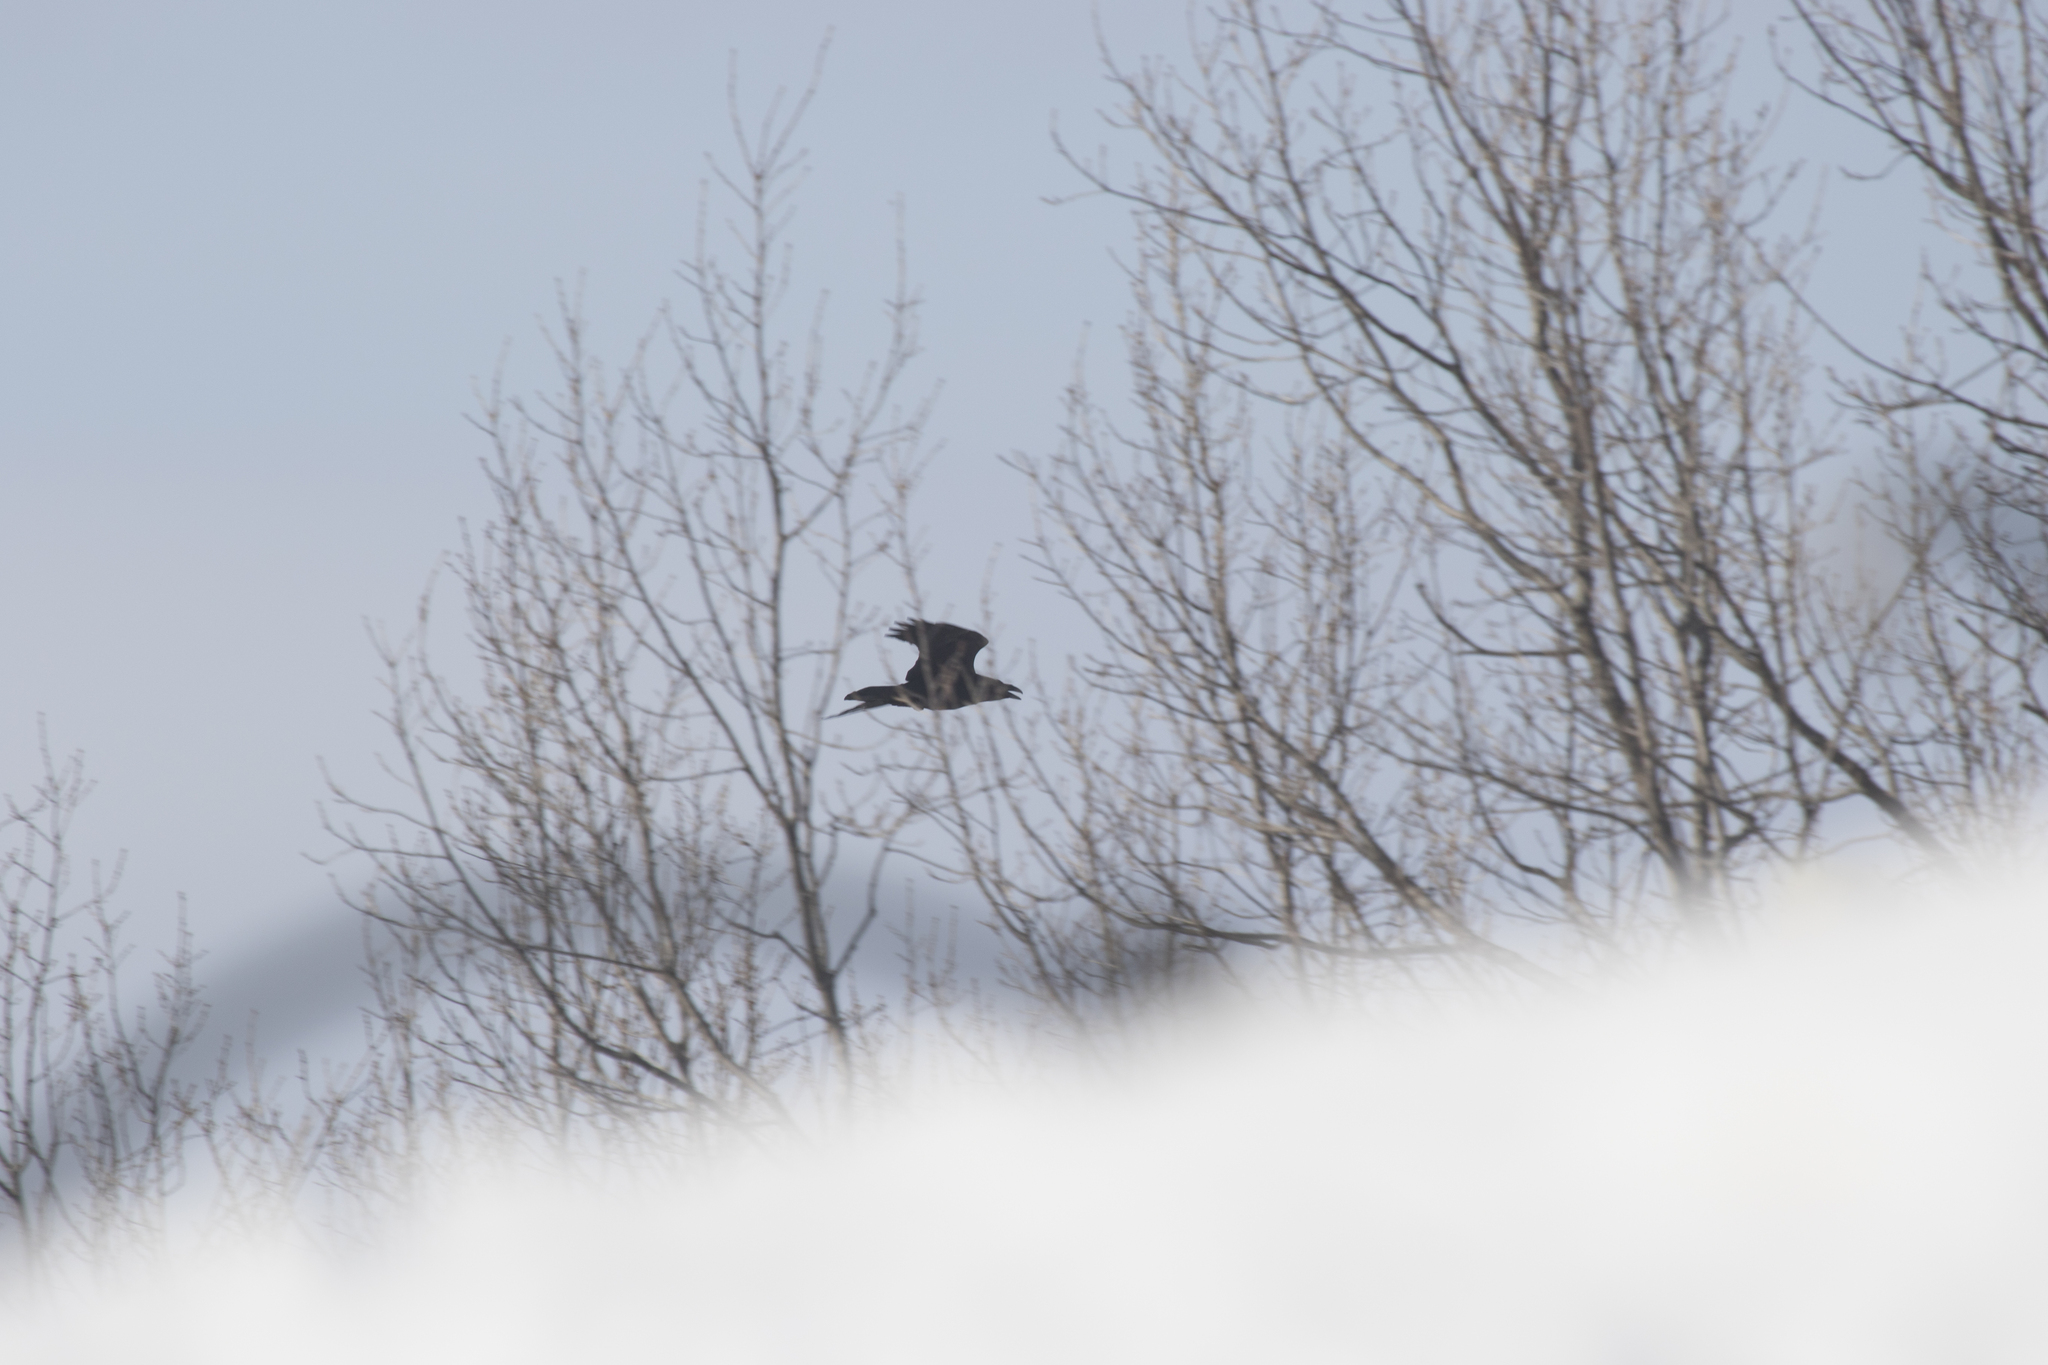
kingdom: Animalia
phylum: Chordata
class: Aves
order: Passeriformes
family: Corvidae
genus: Corvus
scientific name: Corvus corax
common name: Common raven
